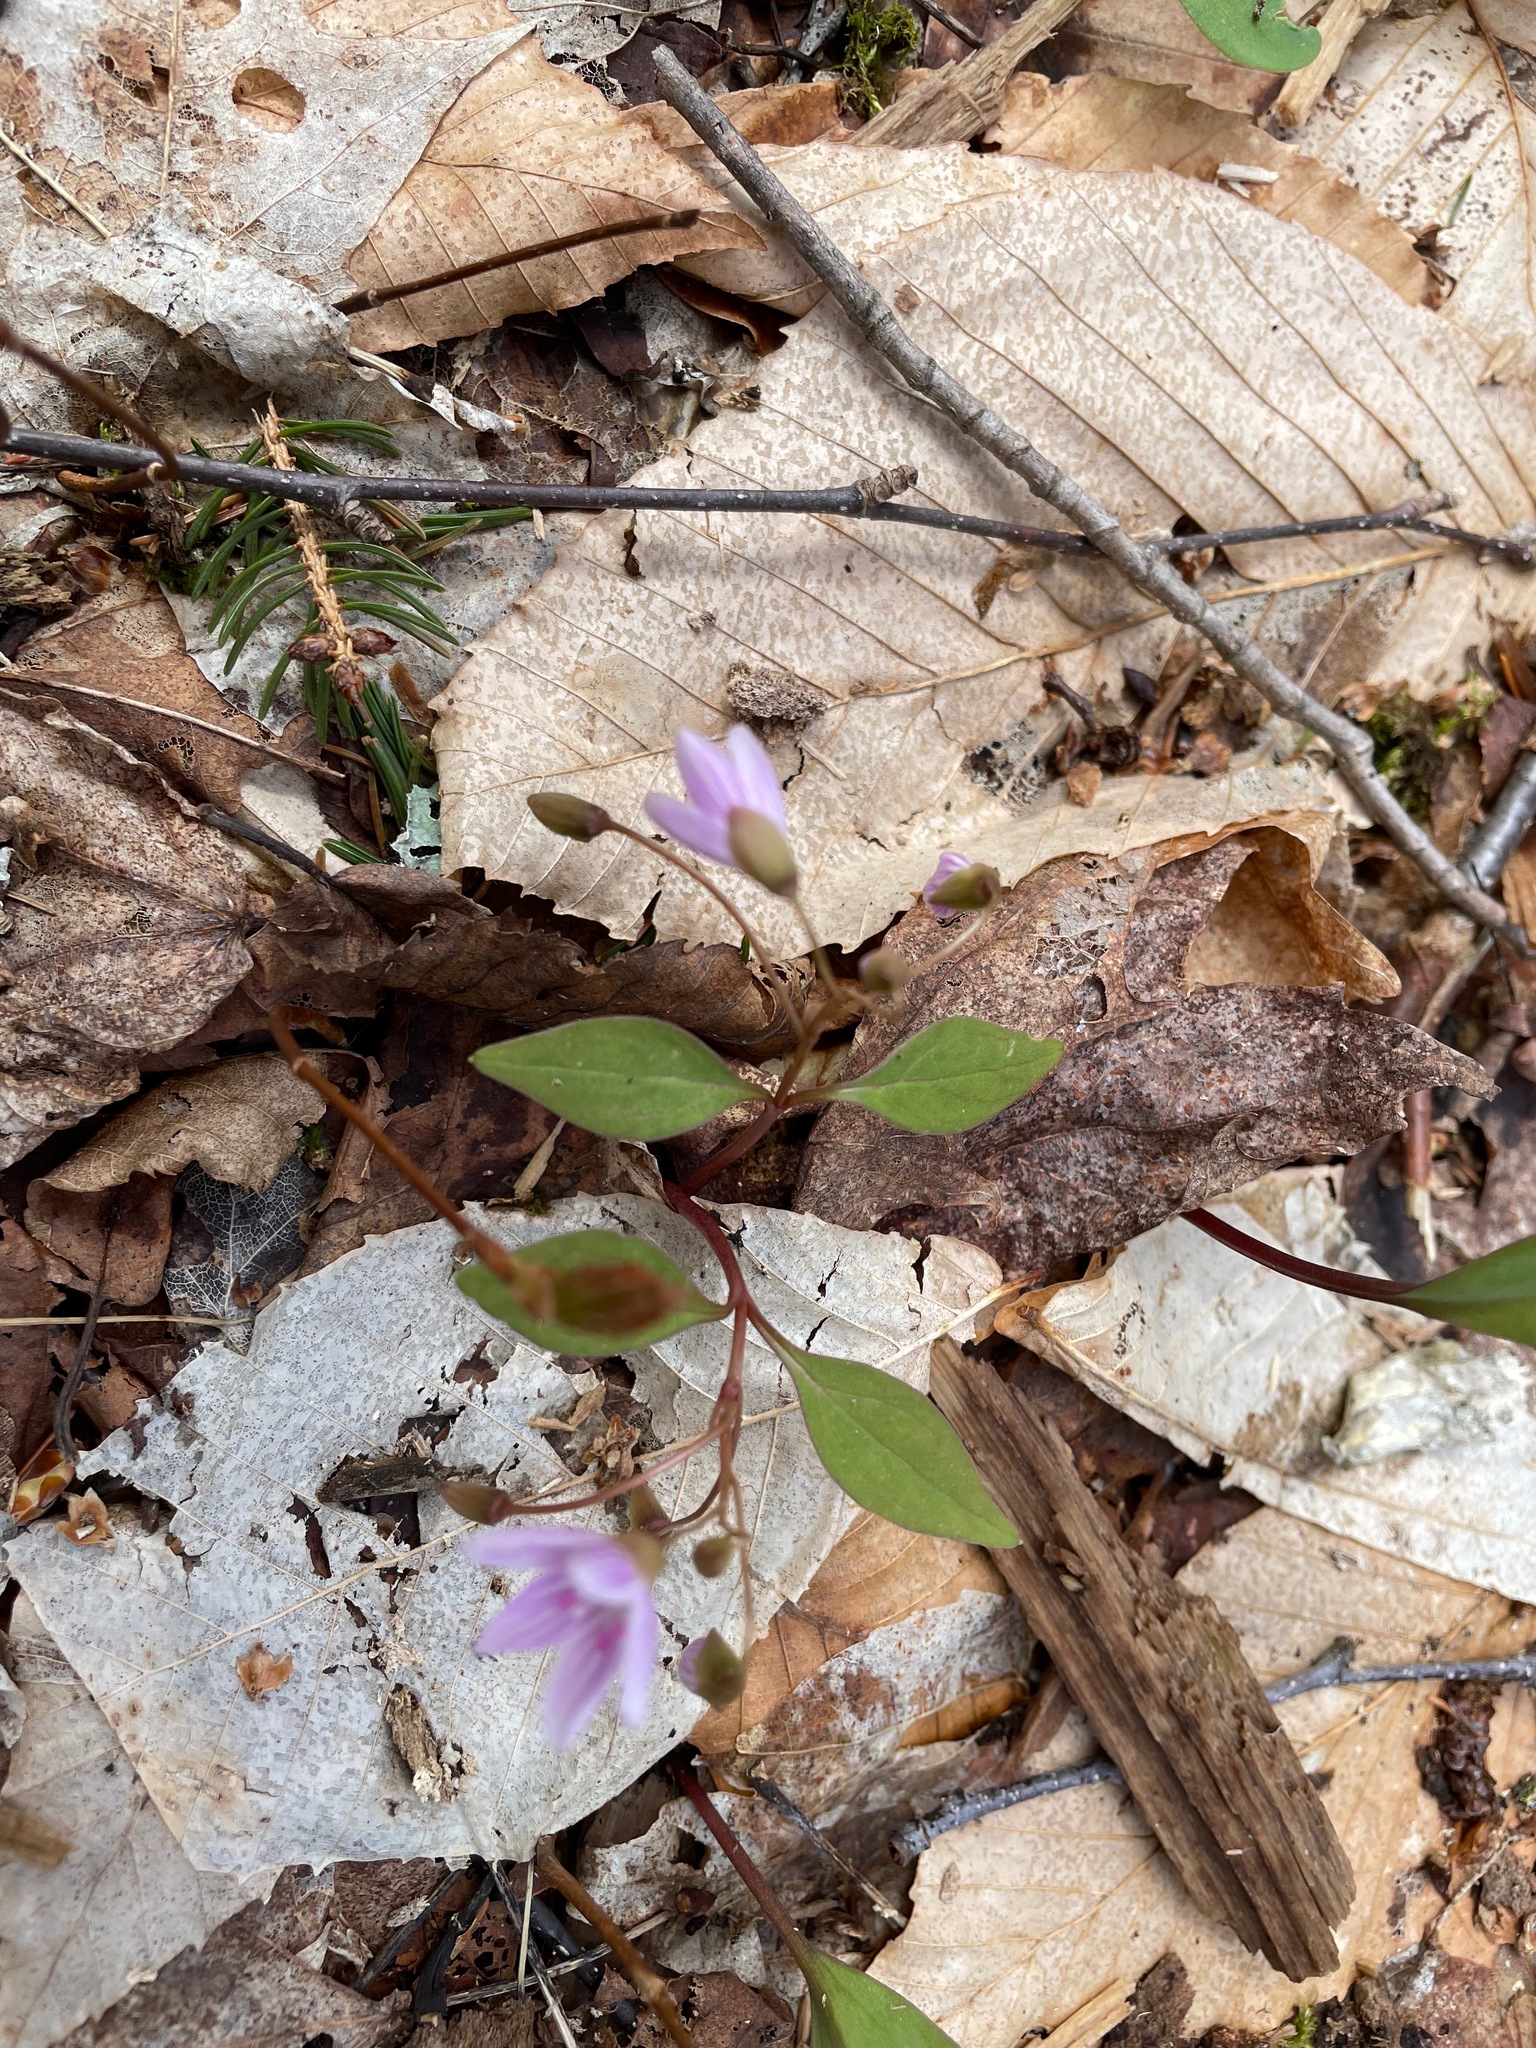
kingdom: Plantae
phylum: Tracheophyta
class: Magnoliopsida
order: Caryophyllales
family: Montiaceae
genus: Claytonia
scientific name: Claytonia caroliniana
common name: Carolina spring beauty
